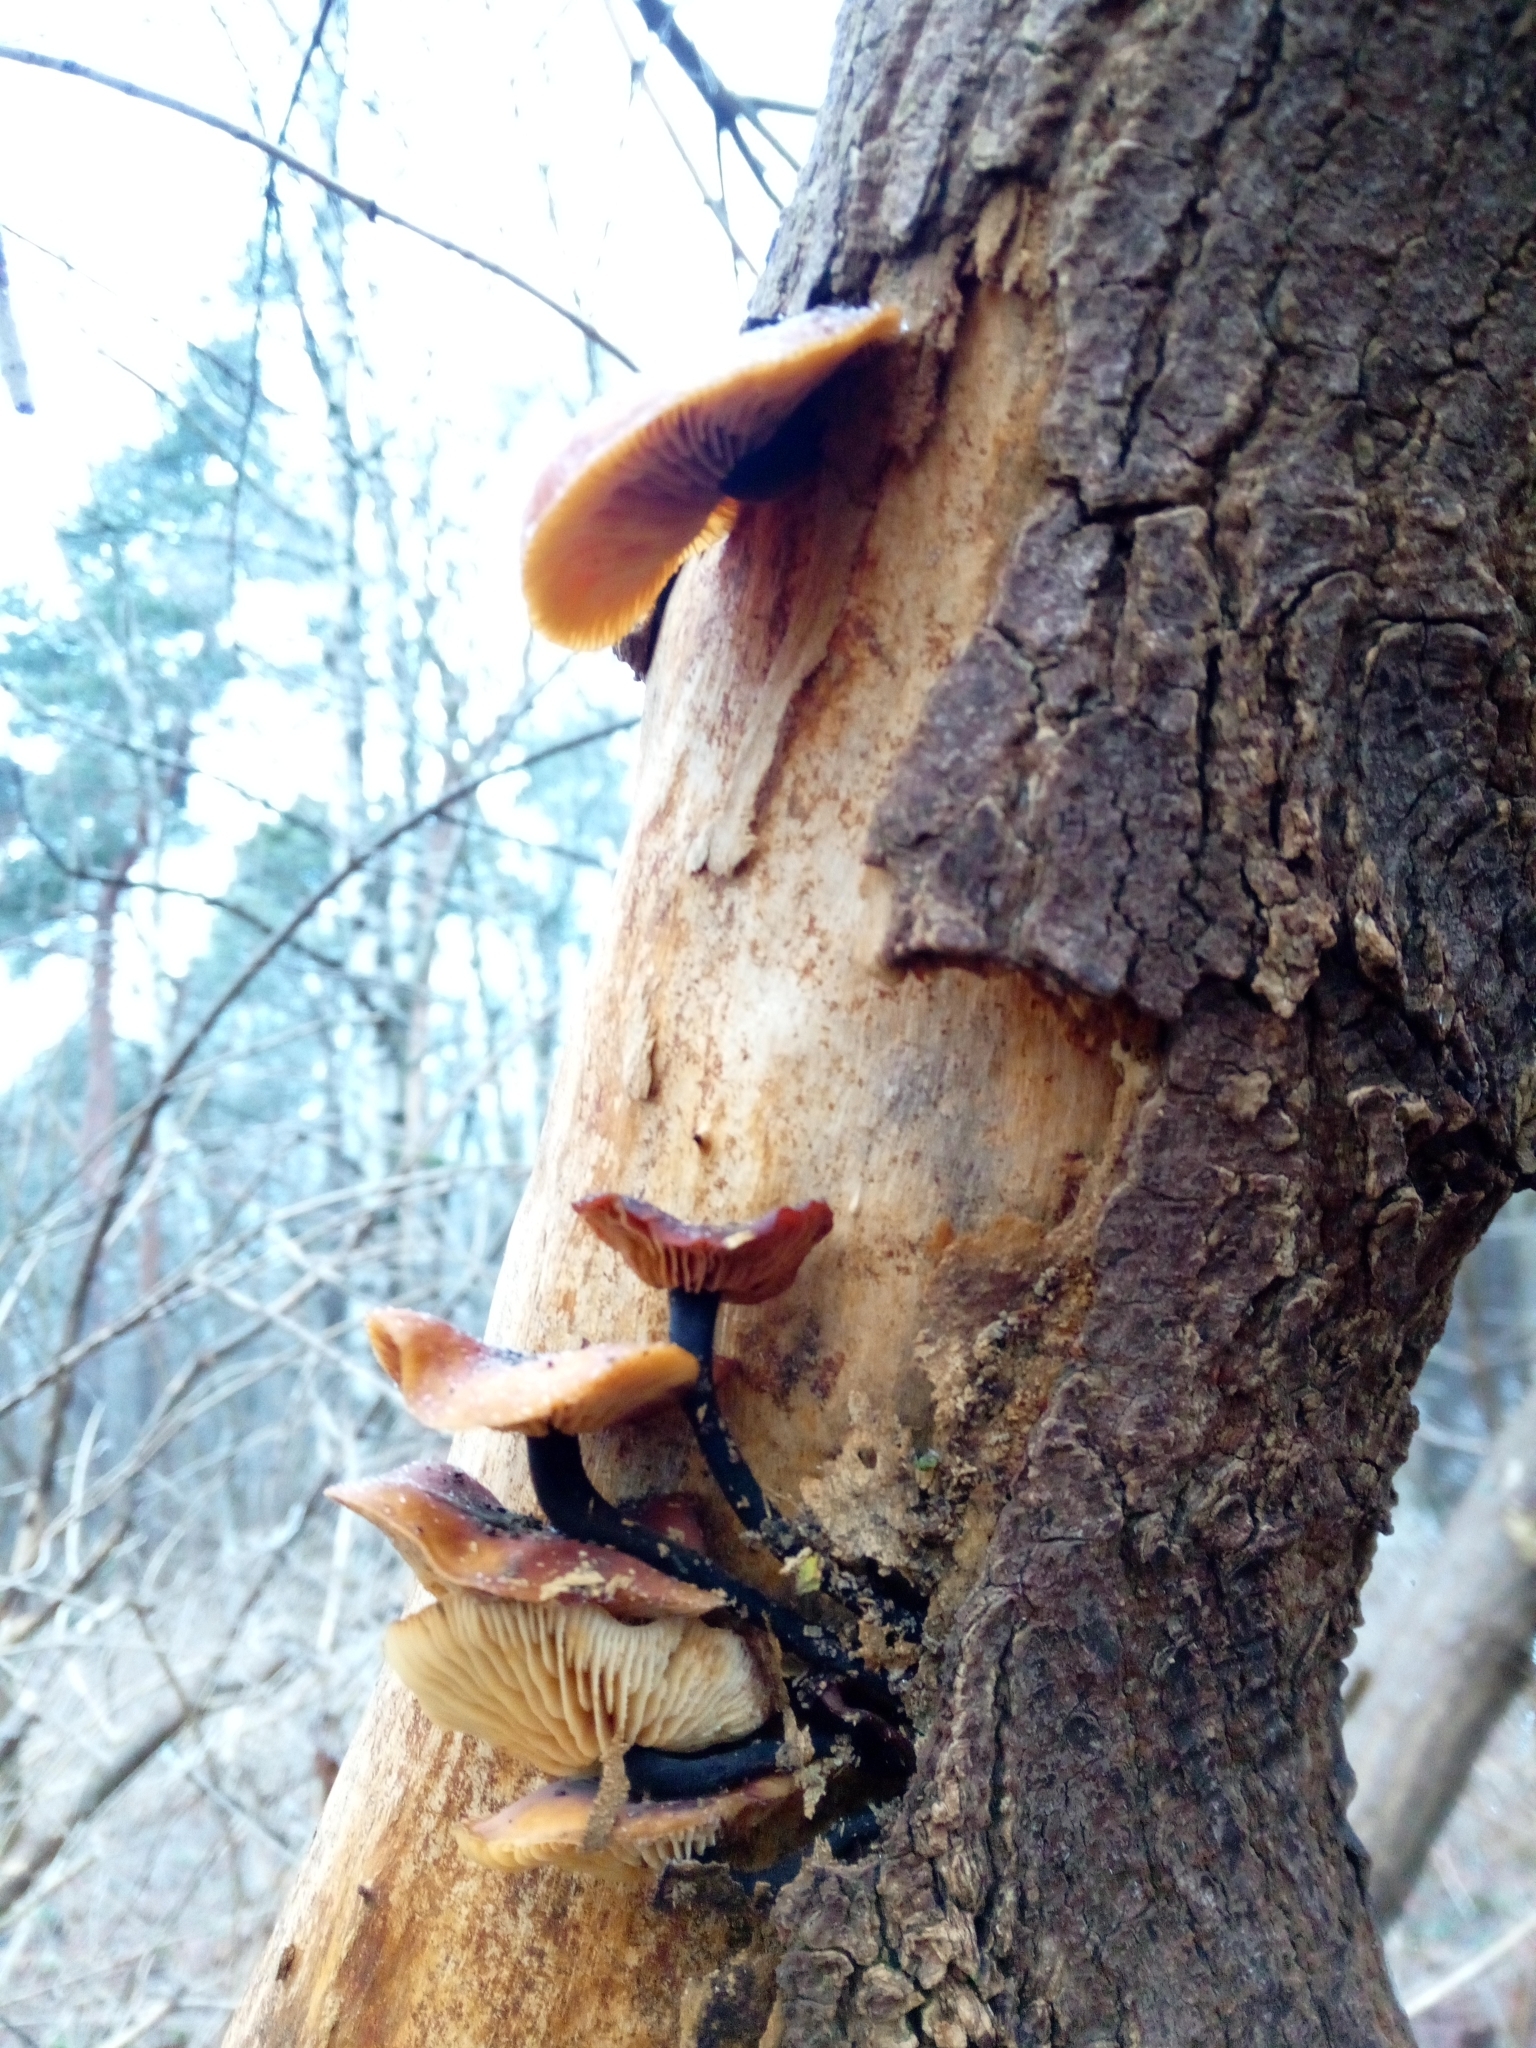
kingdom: Fungi
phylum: Basidiomycota
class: Agaricomycetes
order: Agaricales
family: Physalacriaceae
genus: Flammulina
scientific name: Flammulina
